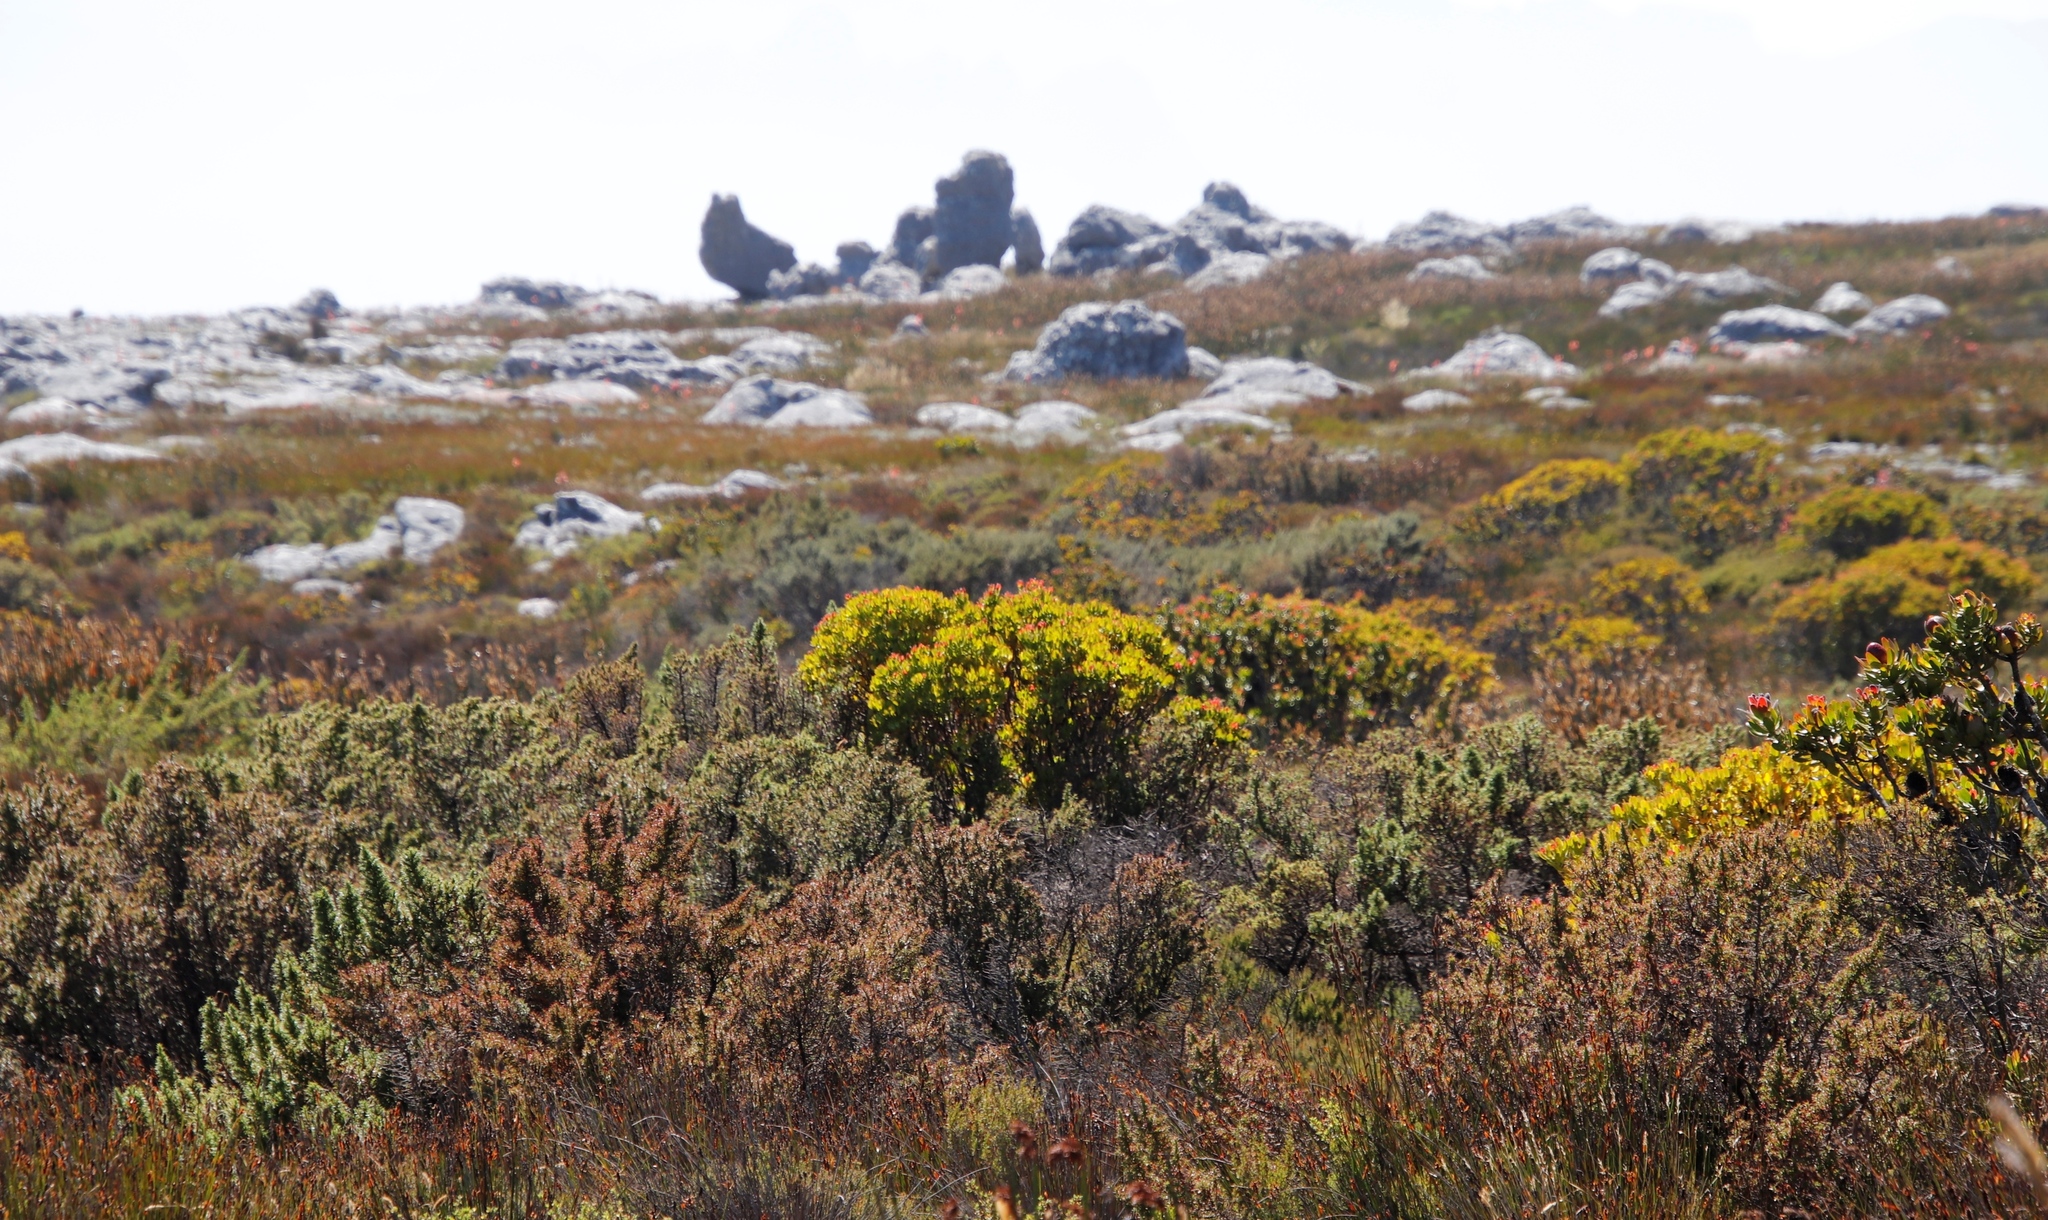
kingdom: Plantae
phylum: Tracheophyta
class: Magnoliopsida
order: Proteales
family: Proteaceae
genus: Leucadendron
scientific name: Leucadendron strobilinum
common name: Mountain rose
